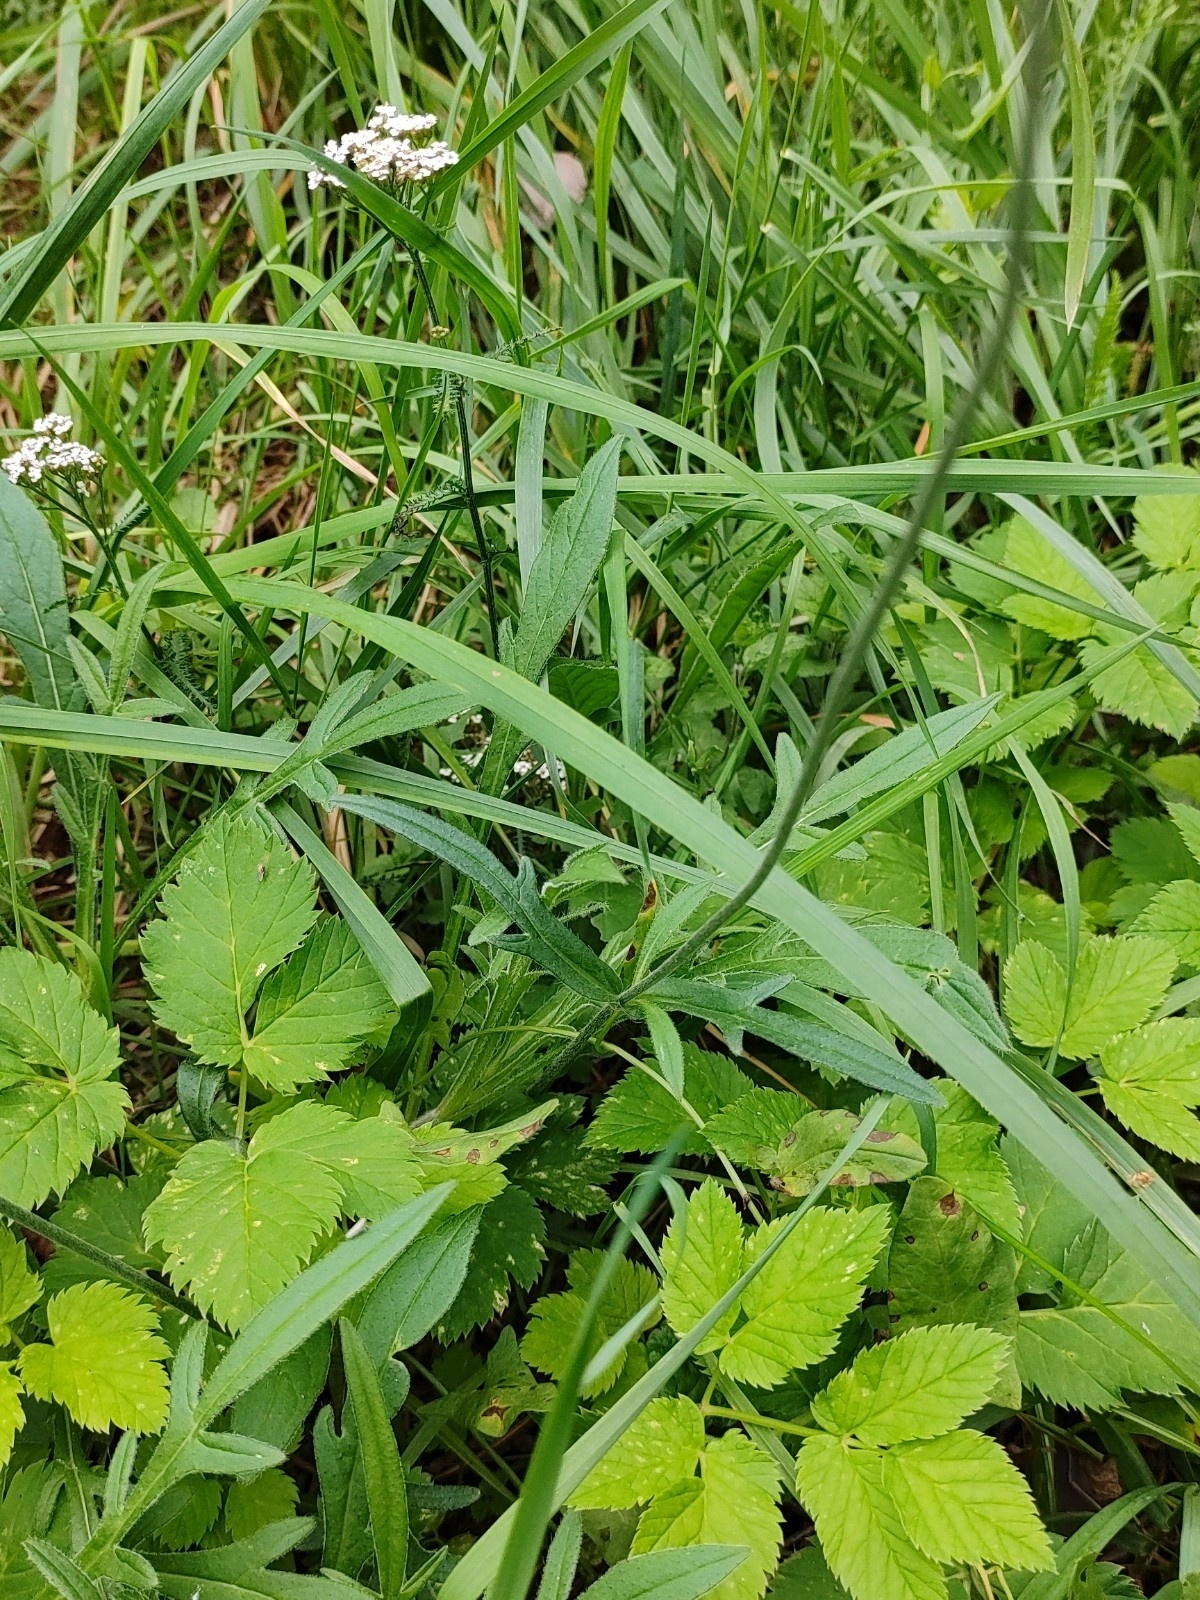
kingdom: Plantae
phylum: Tracheophyta
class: Magnoliopsida
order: Dipsacales
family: Caprifoliaceae
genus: Knautia
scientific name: Knautia arvensis
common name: Field scabiosa
